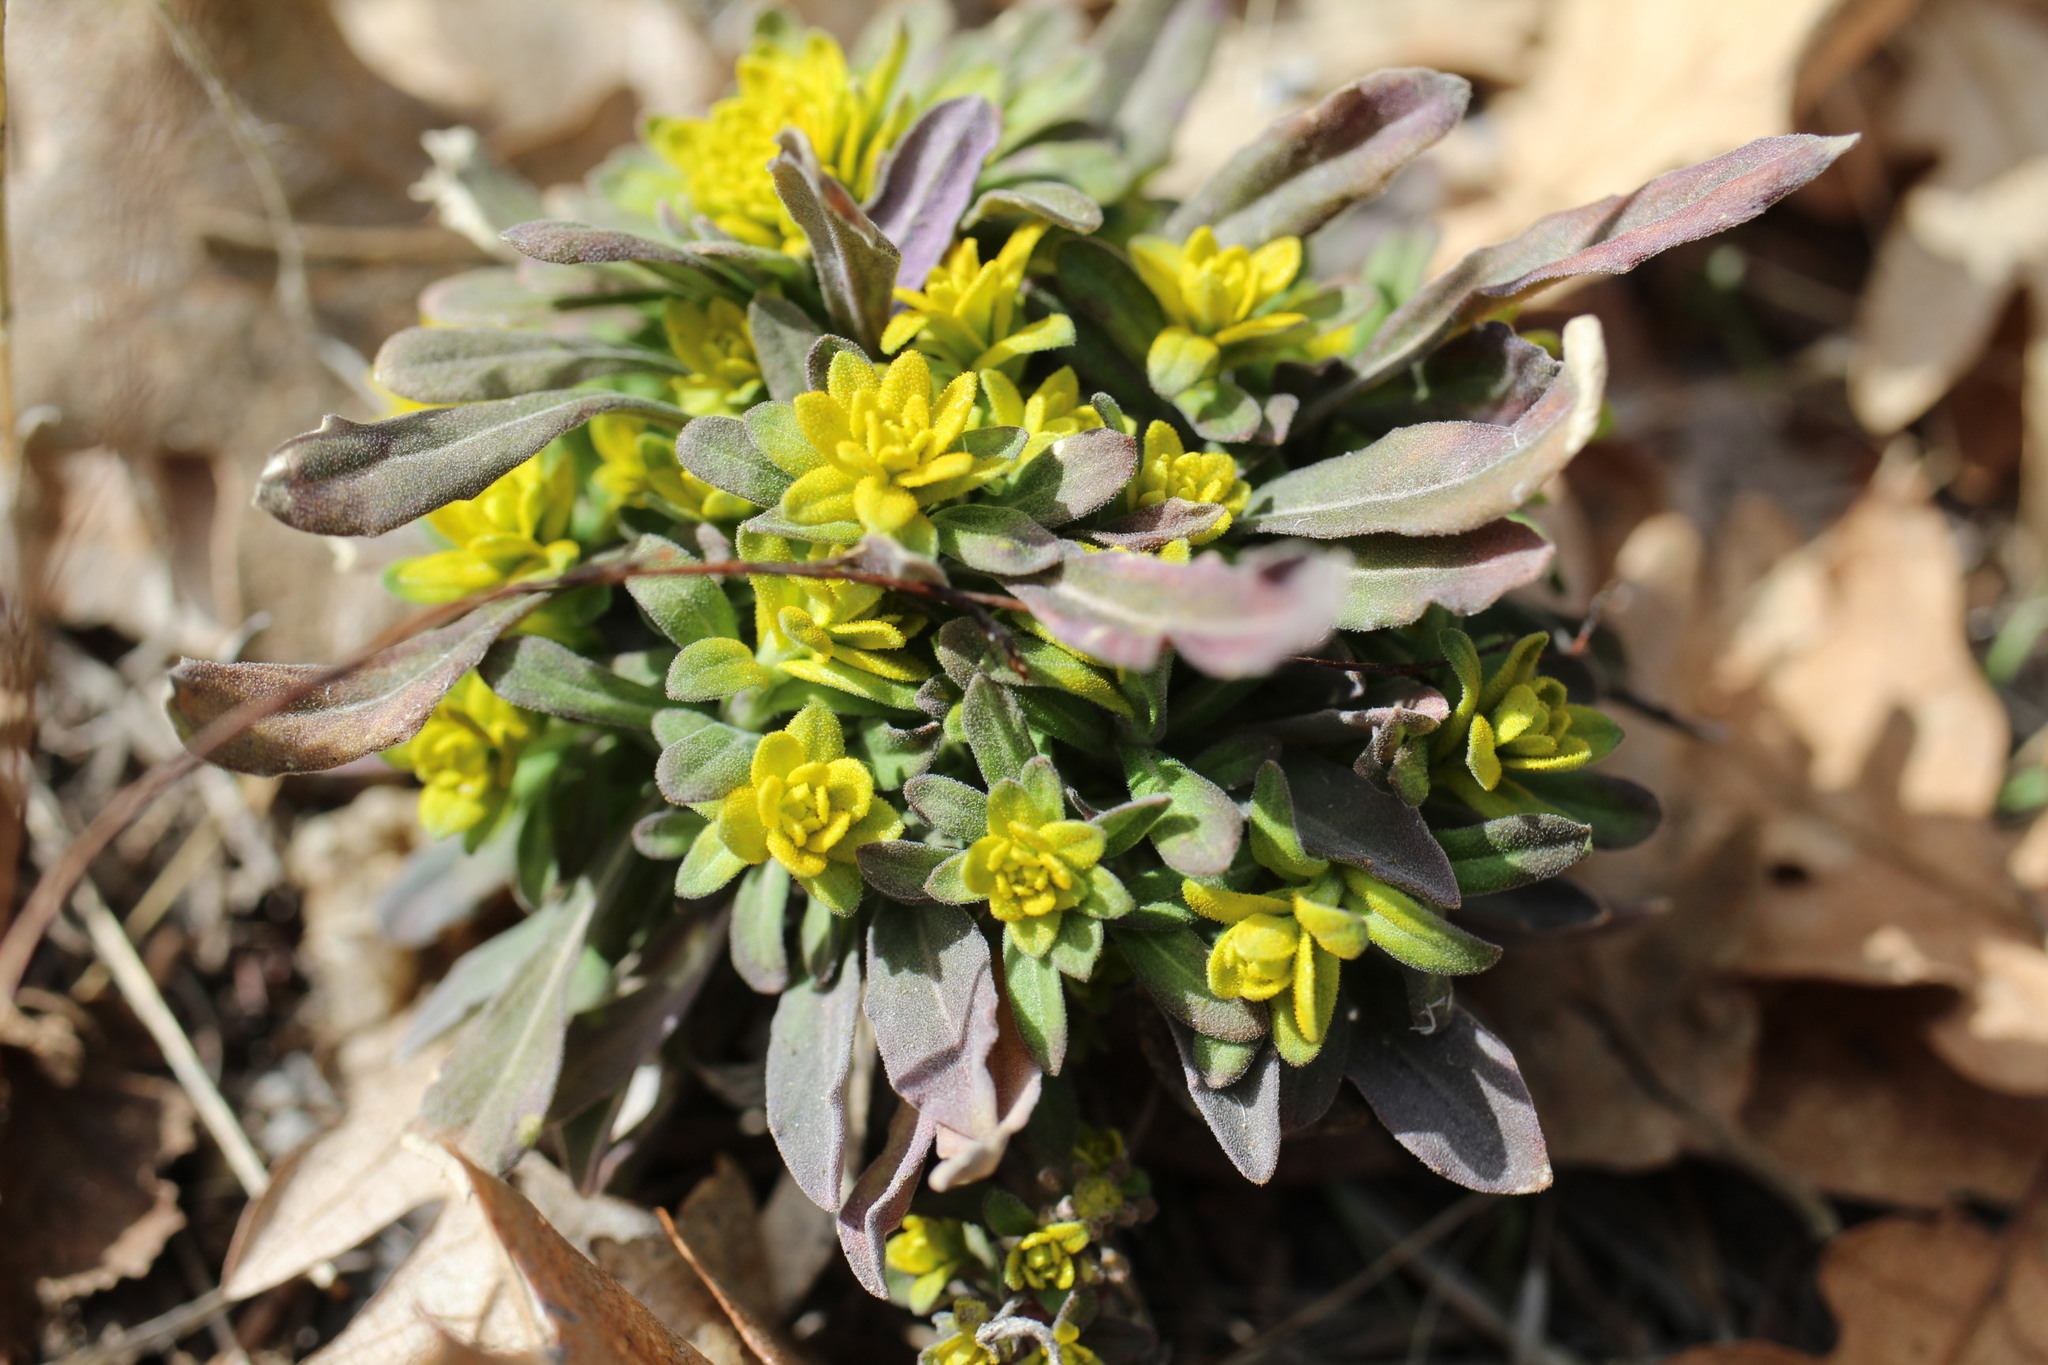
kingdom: Fungi
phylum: Basidiomycota
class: Pucciniomycetes
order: Pucciniales
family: Pucciniaceae
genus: Puccinia
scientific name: Puccinia monoica
